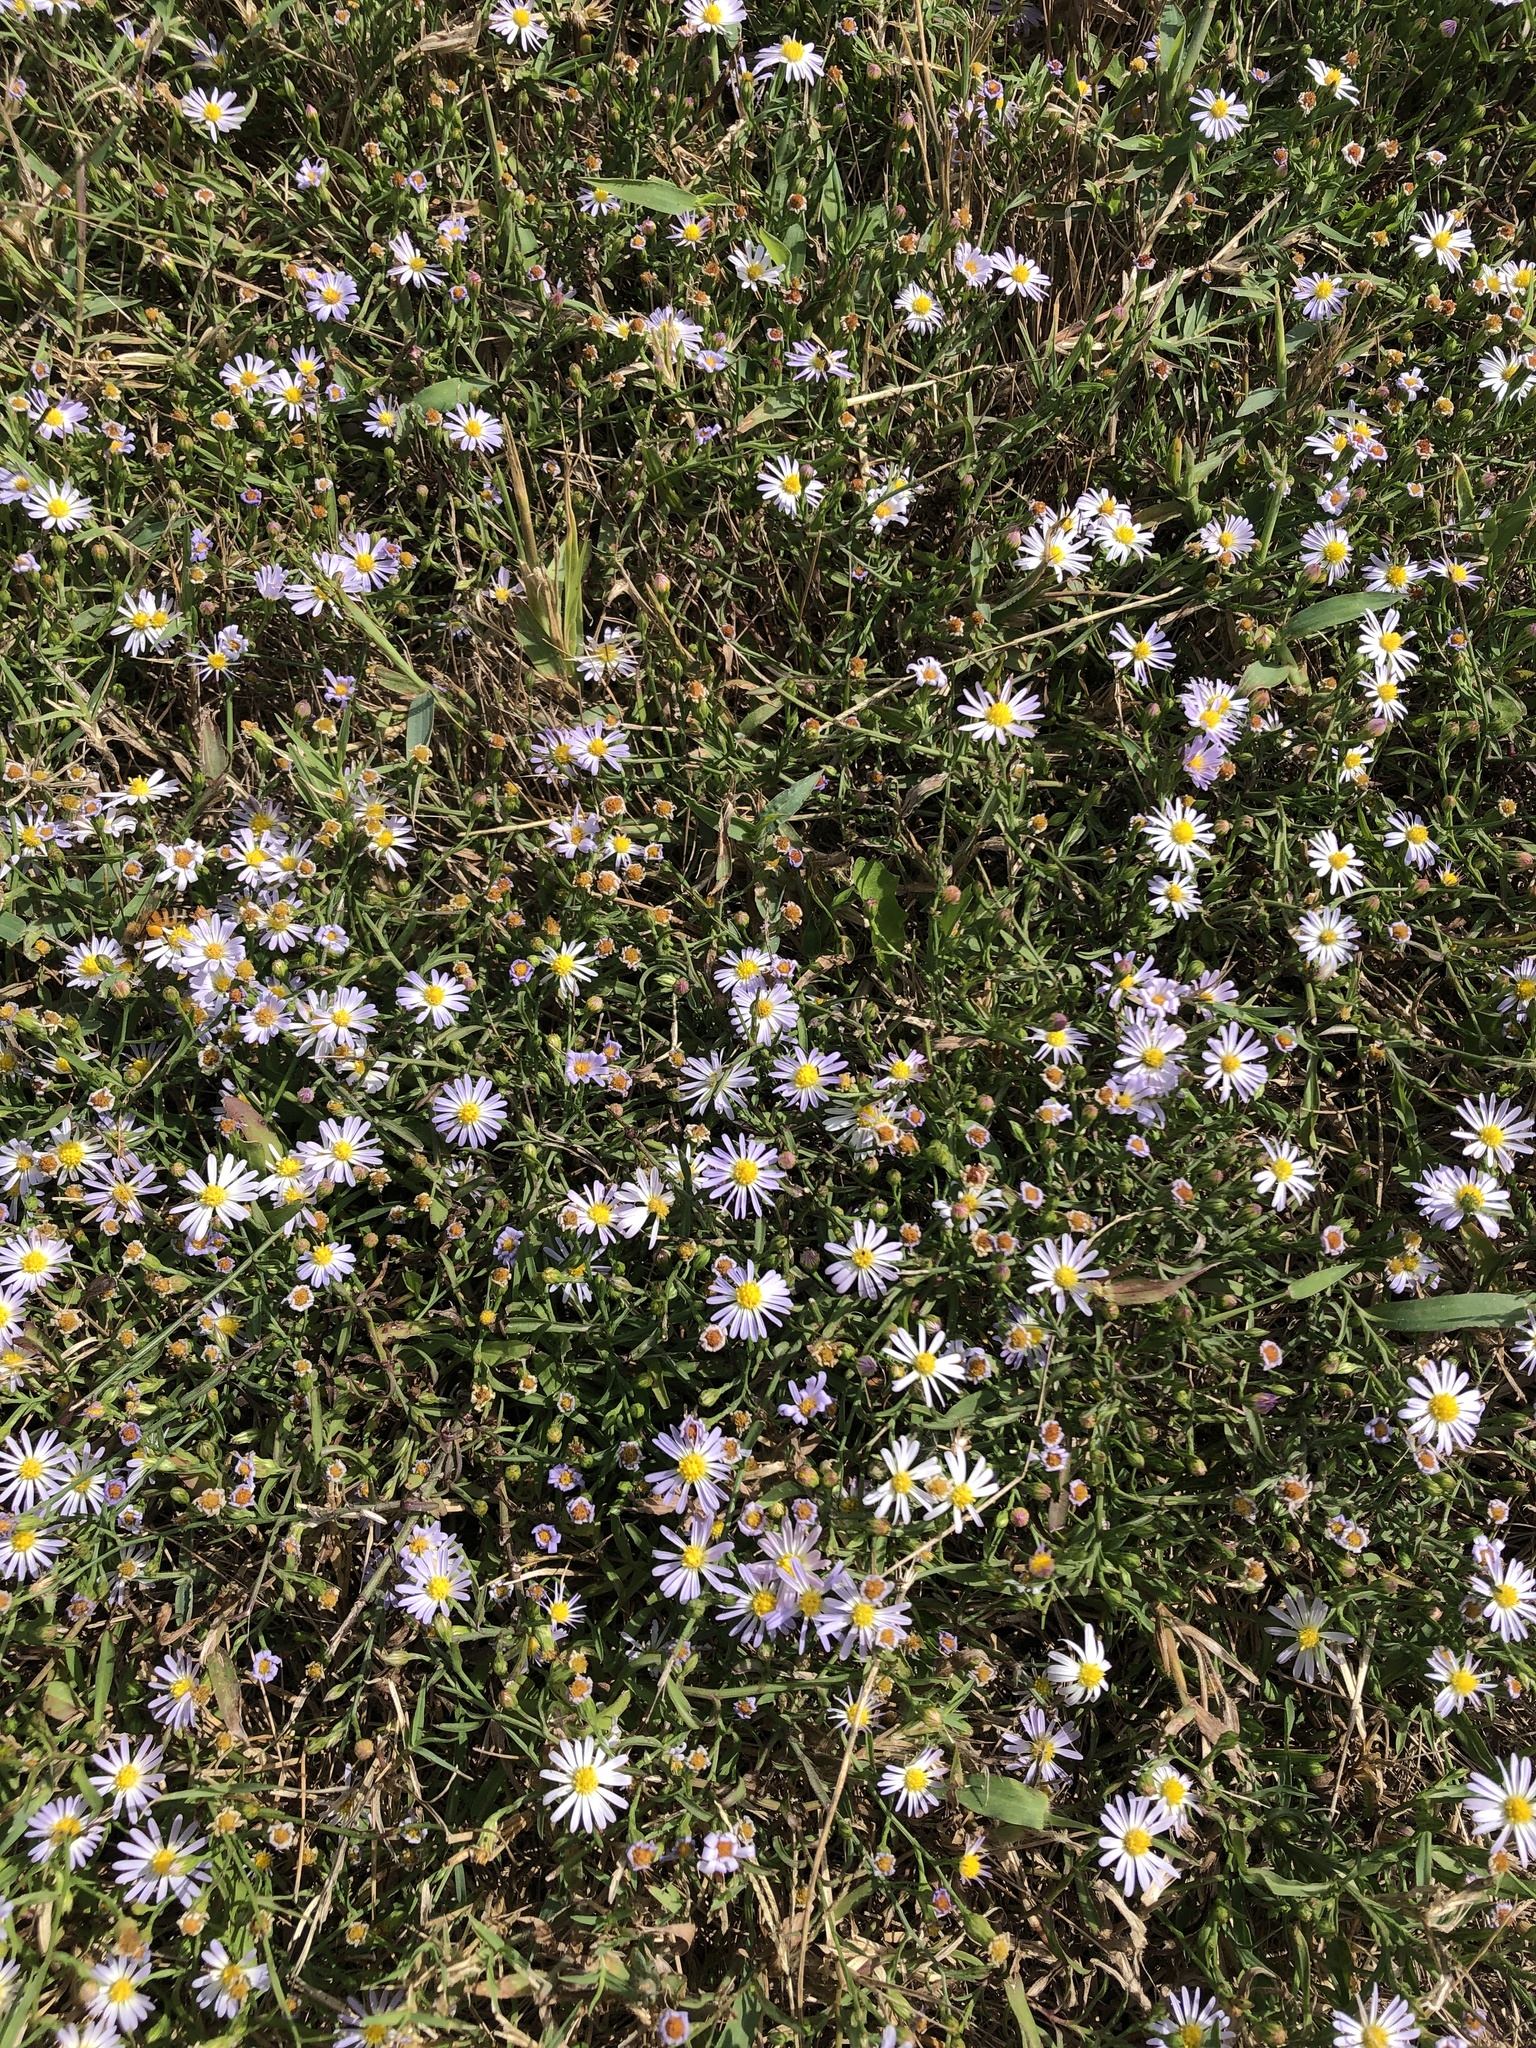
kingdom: Plantae
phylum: Tracheophyta
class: Magnoliopsida
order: Asterales
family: Asteraceae
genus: Symphyotrichum
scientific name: Symphyotrichum divaricatum
